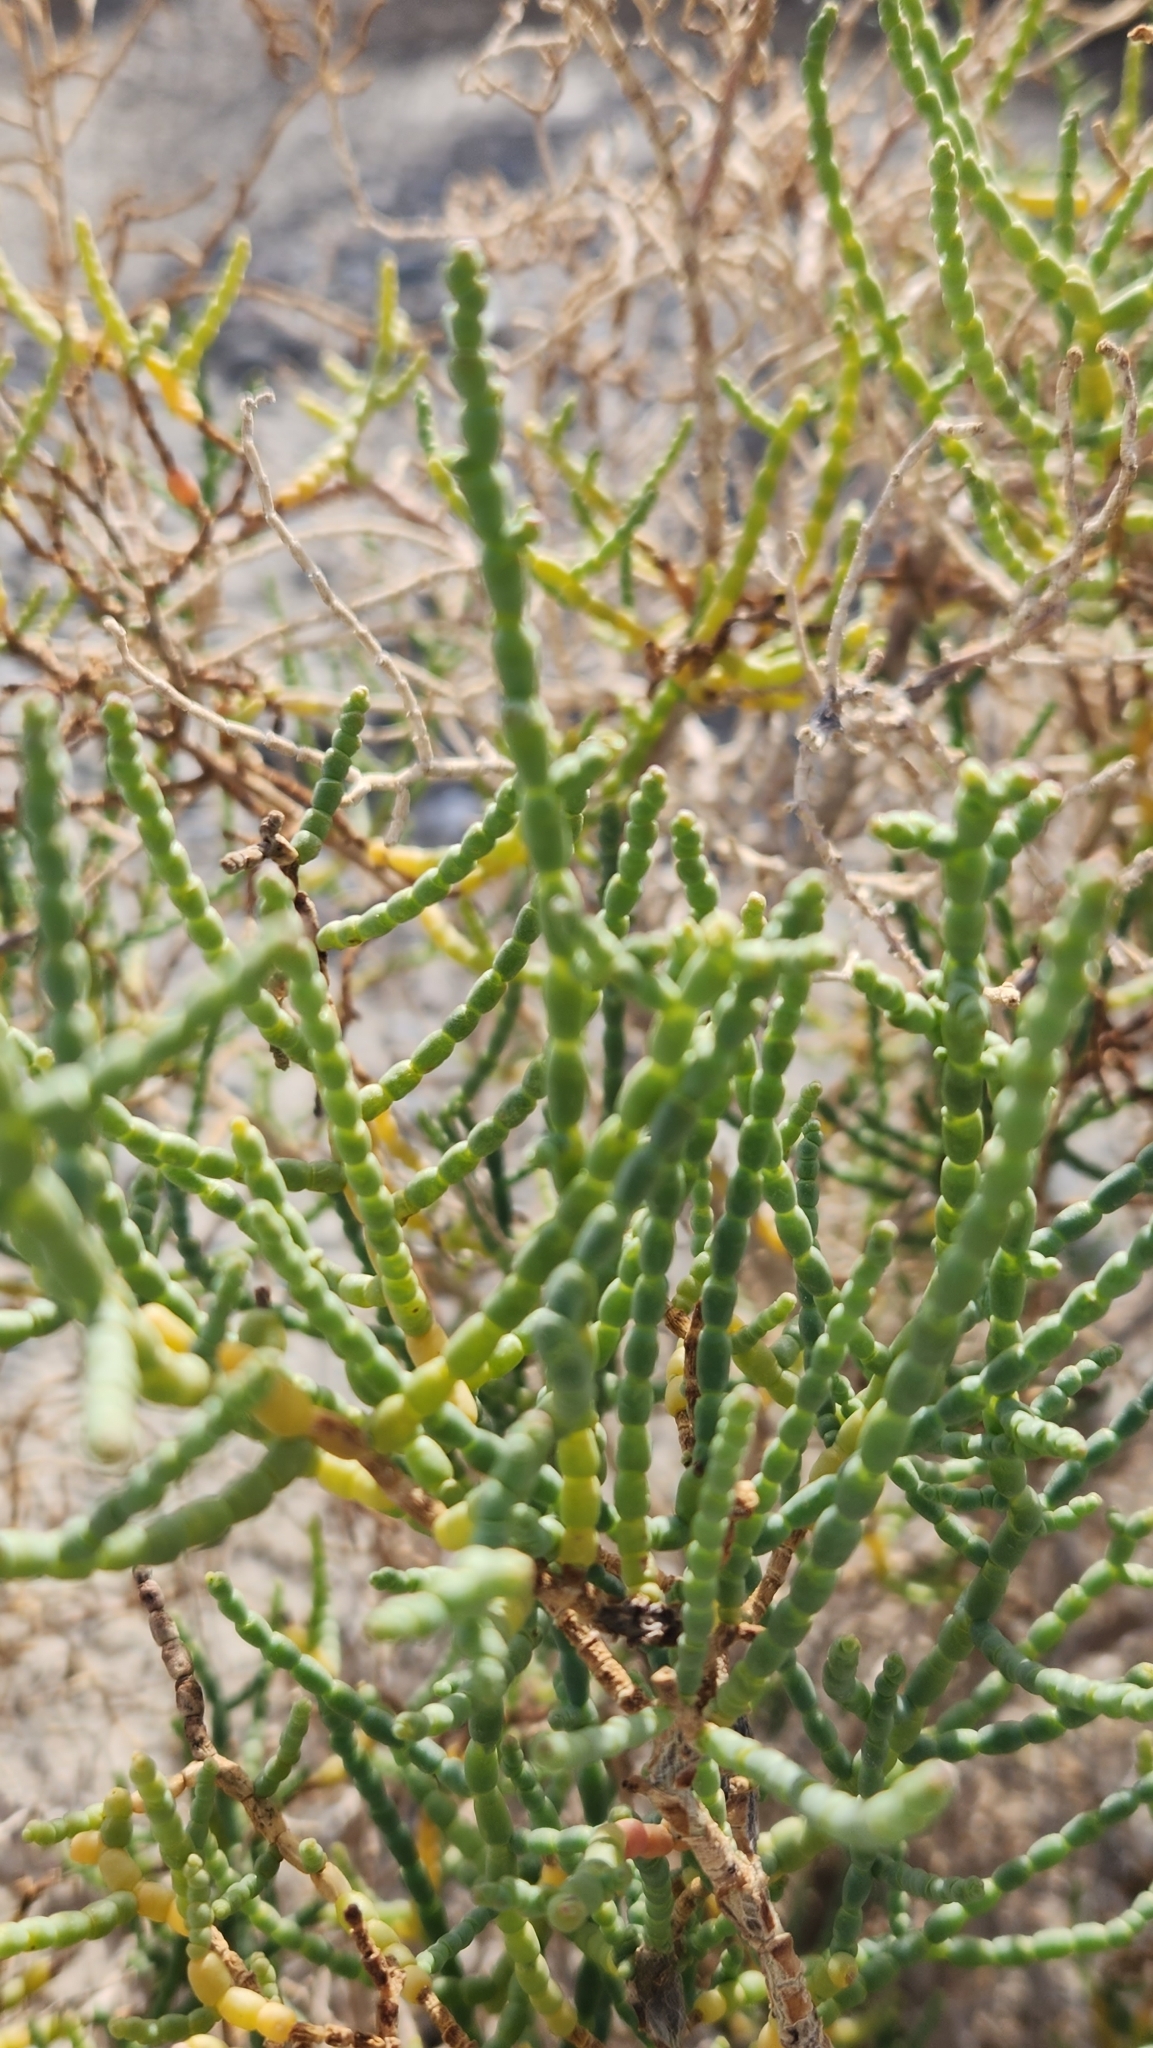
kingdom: Plantae
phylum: Tracheophyta
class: Magnoliopsida
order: Caryophyllales
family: Amaranthaceae
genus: Allenrolfea
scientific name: Allenrolfea occidentalis
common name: Iodine-bush
